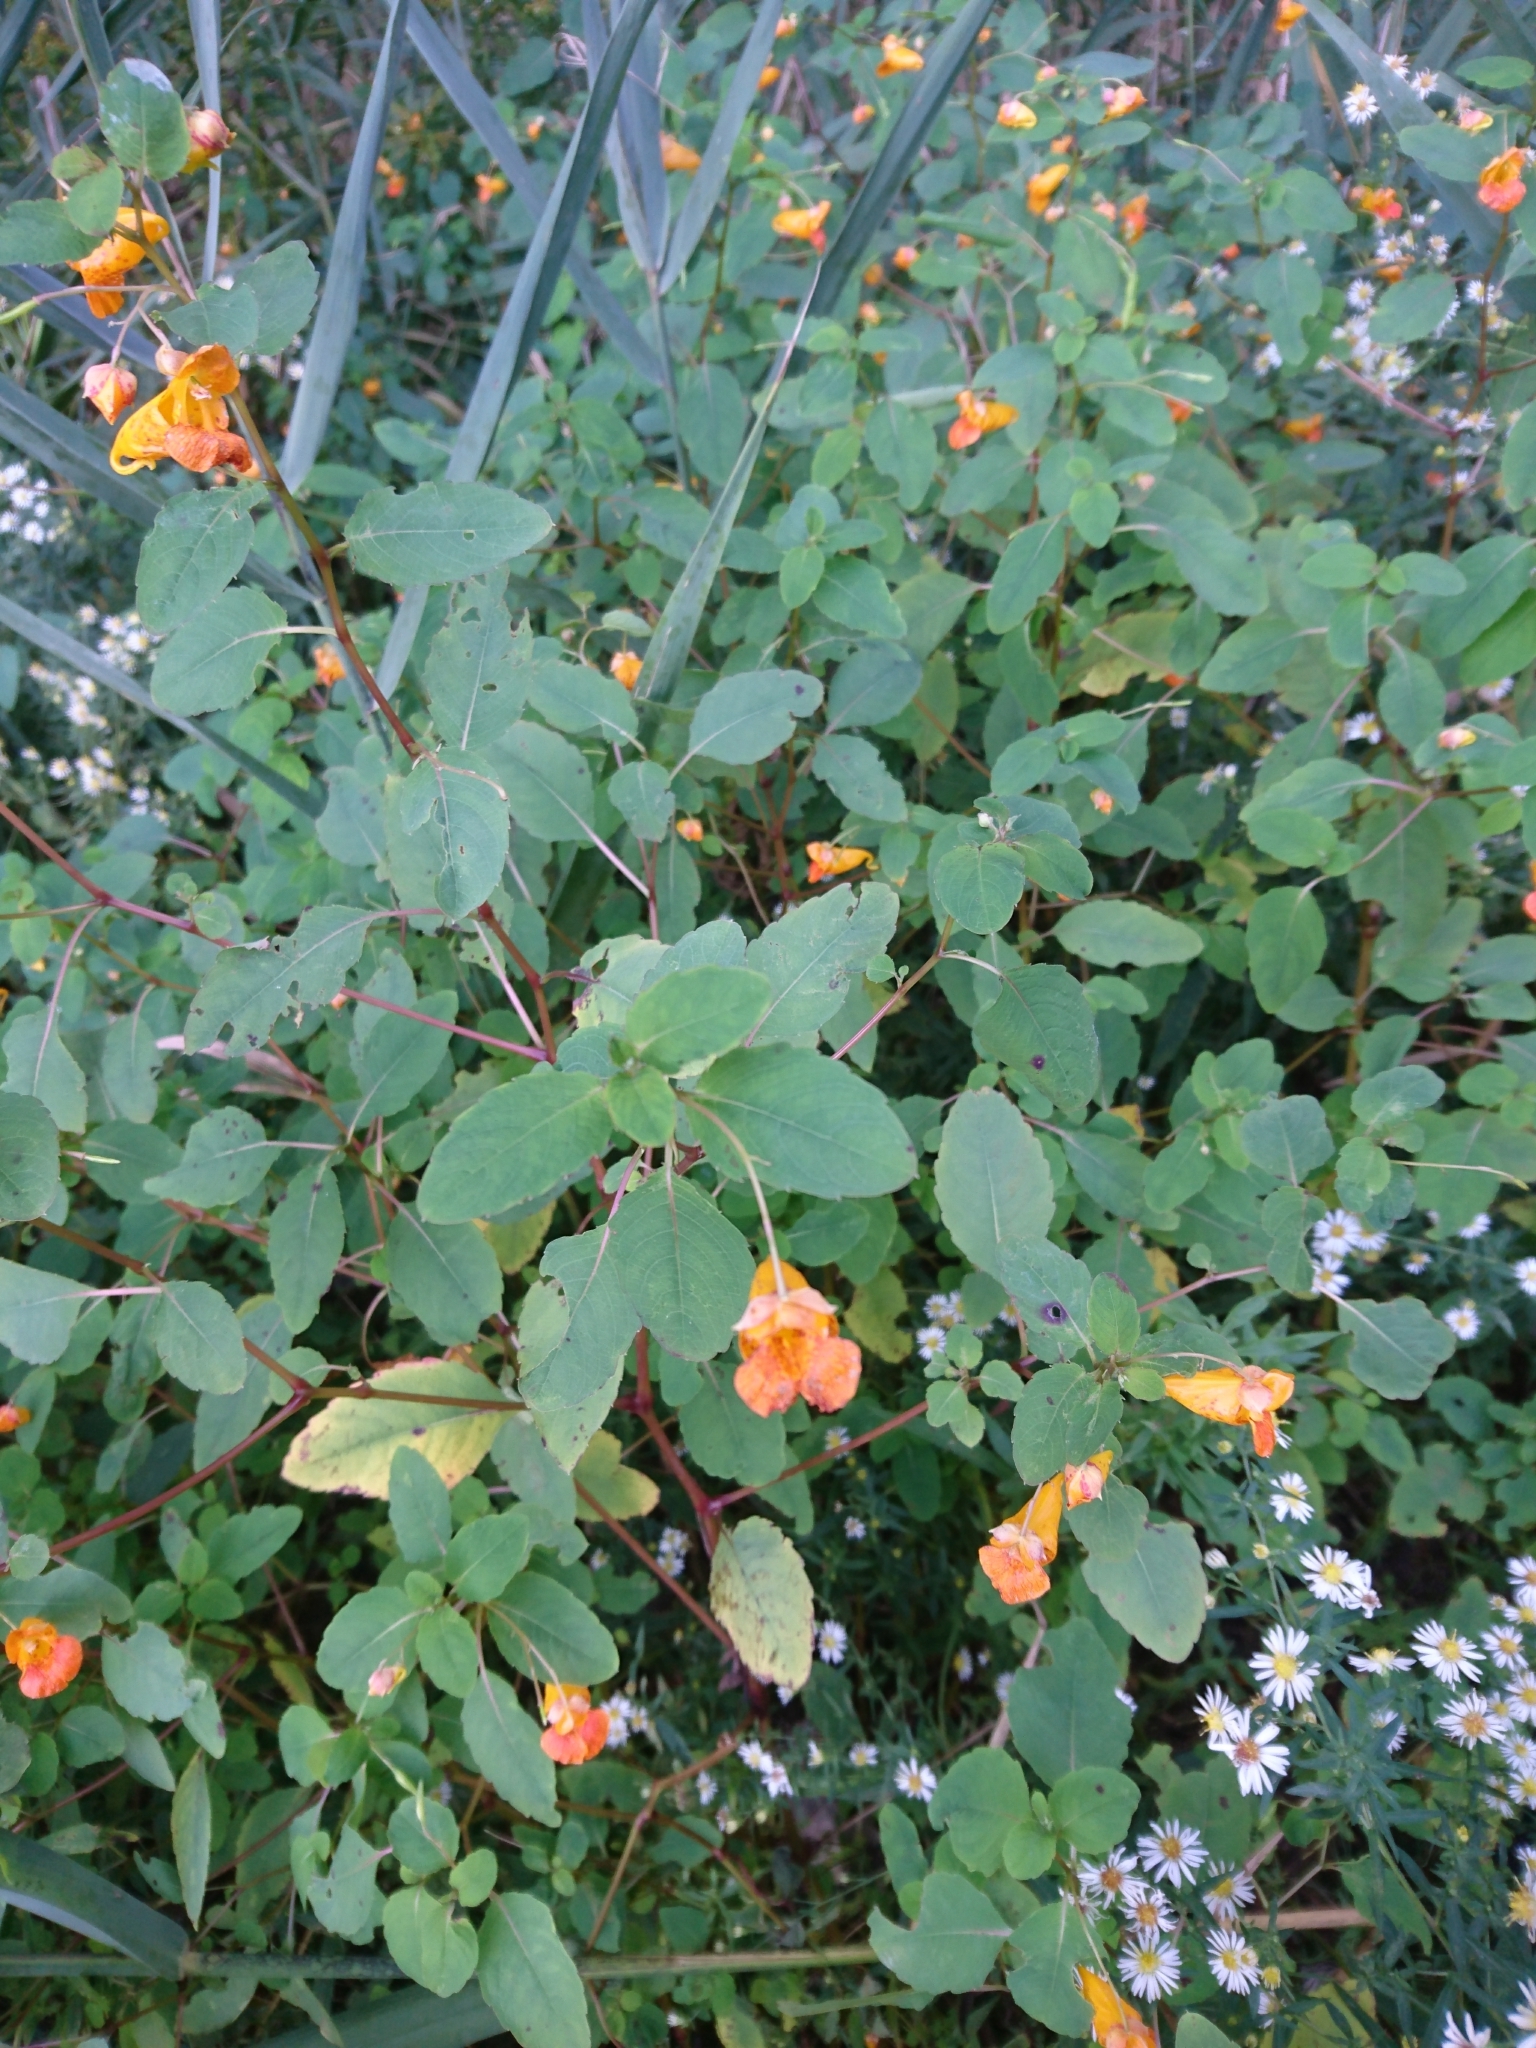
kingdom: Plantae
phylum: Tracheophyta
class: Magnoliopsida
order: Ericales
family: Balsaminaceae
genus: Impatiens
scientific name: Impatiens capensis
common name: Orange balsam
